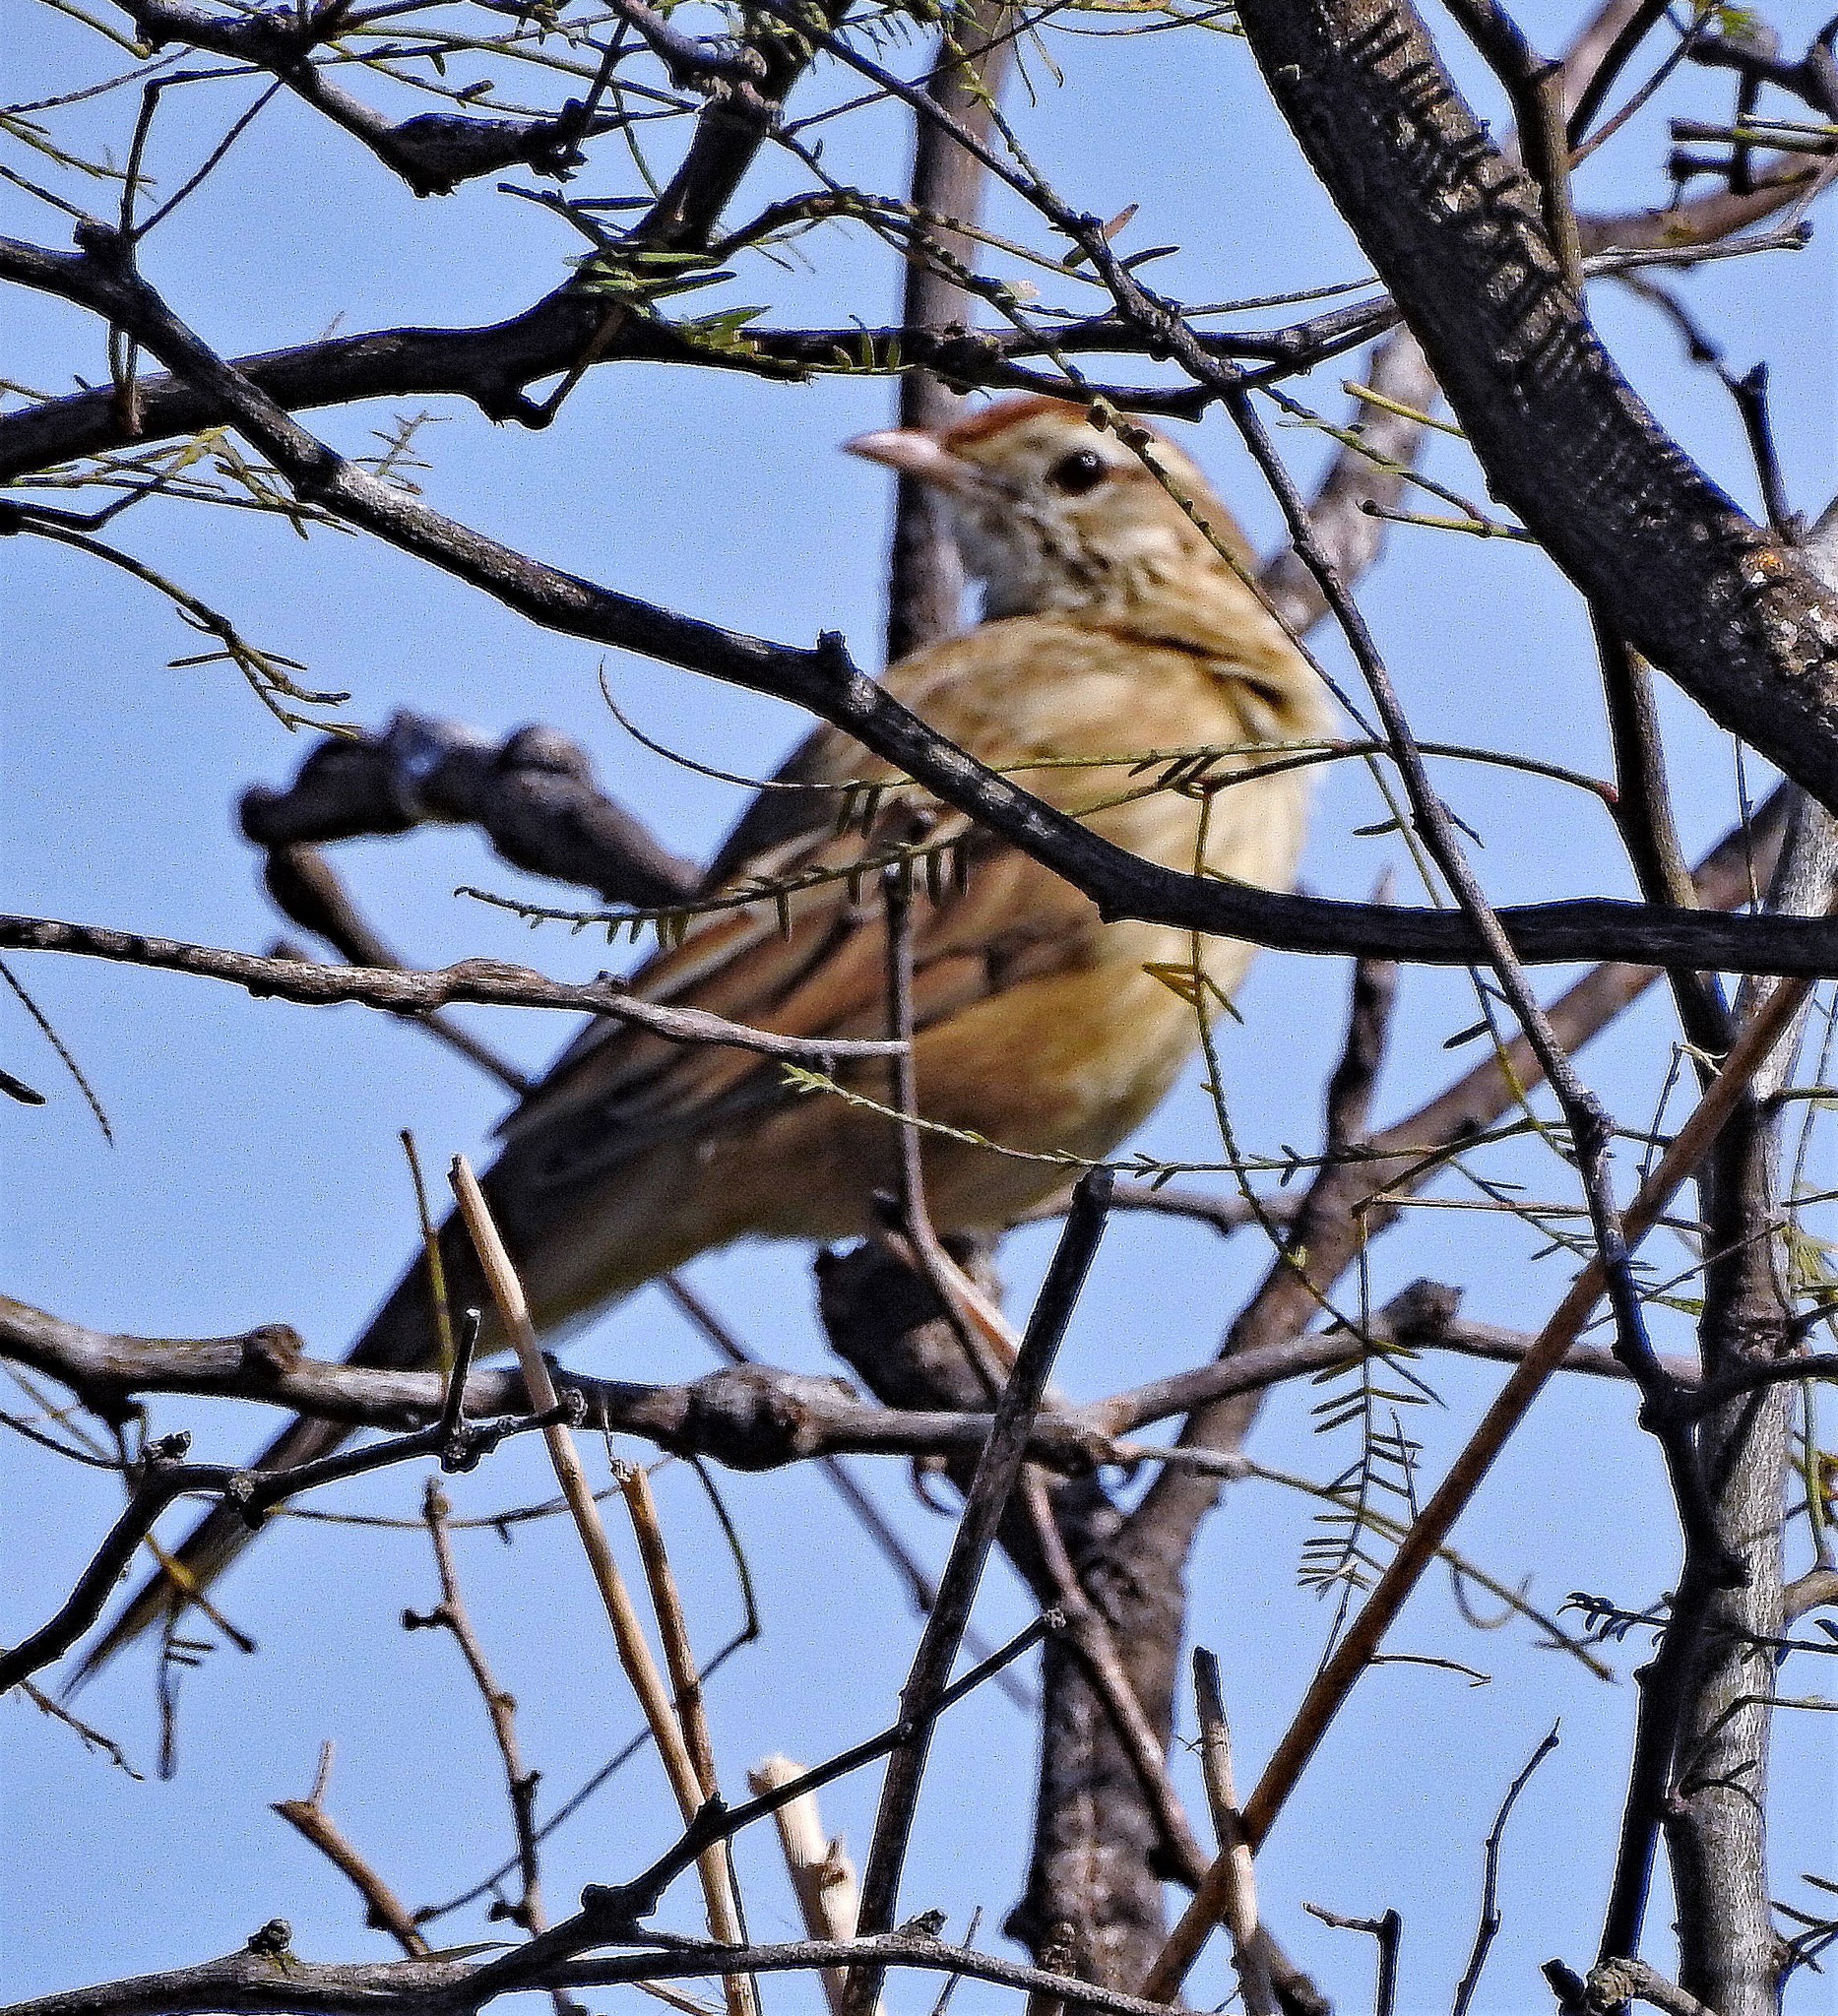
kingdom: Animalia
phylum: Chordata
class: Aves
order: Passeriformes
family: Furnariidae
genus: Anumbius
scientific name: Anumbius annumbi
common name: Firewood-gatherer
